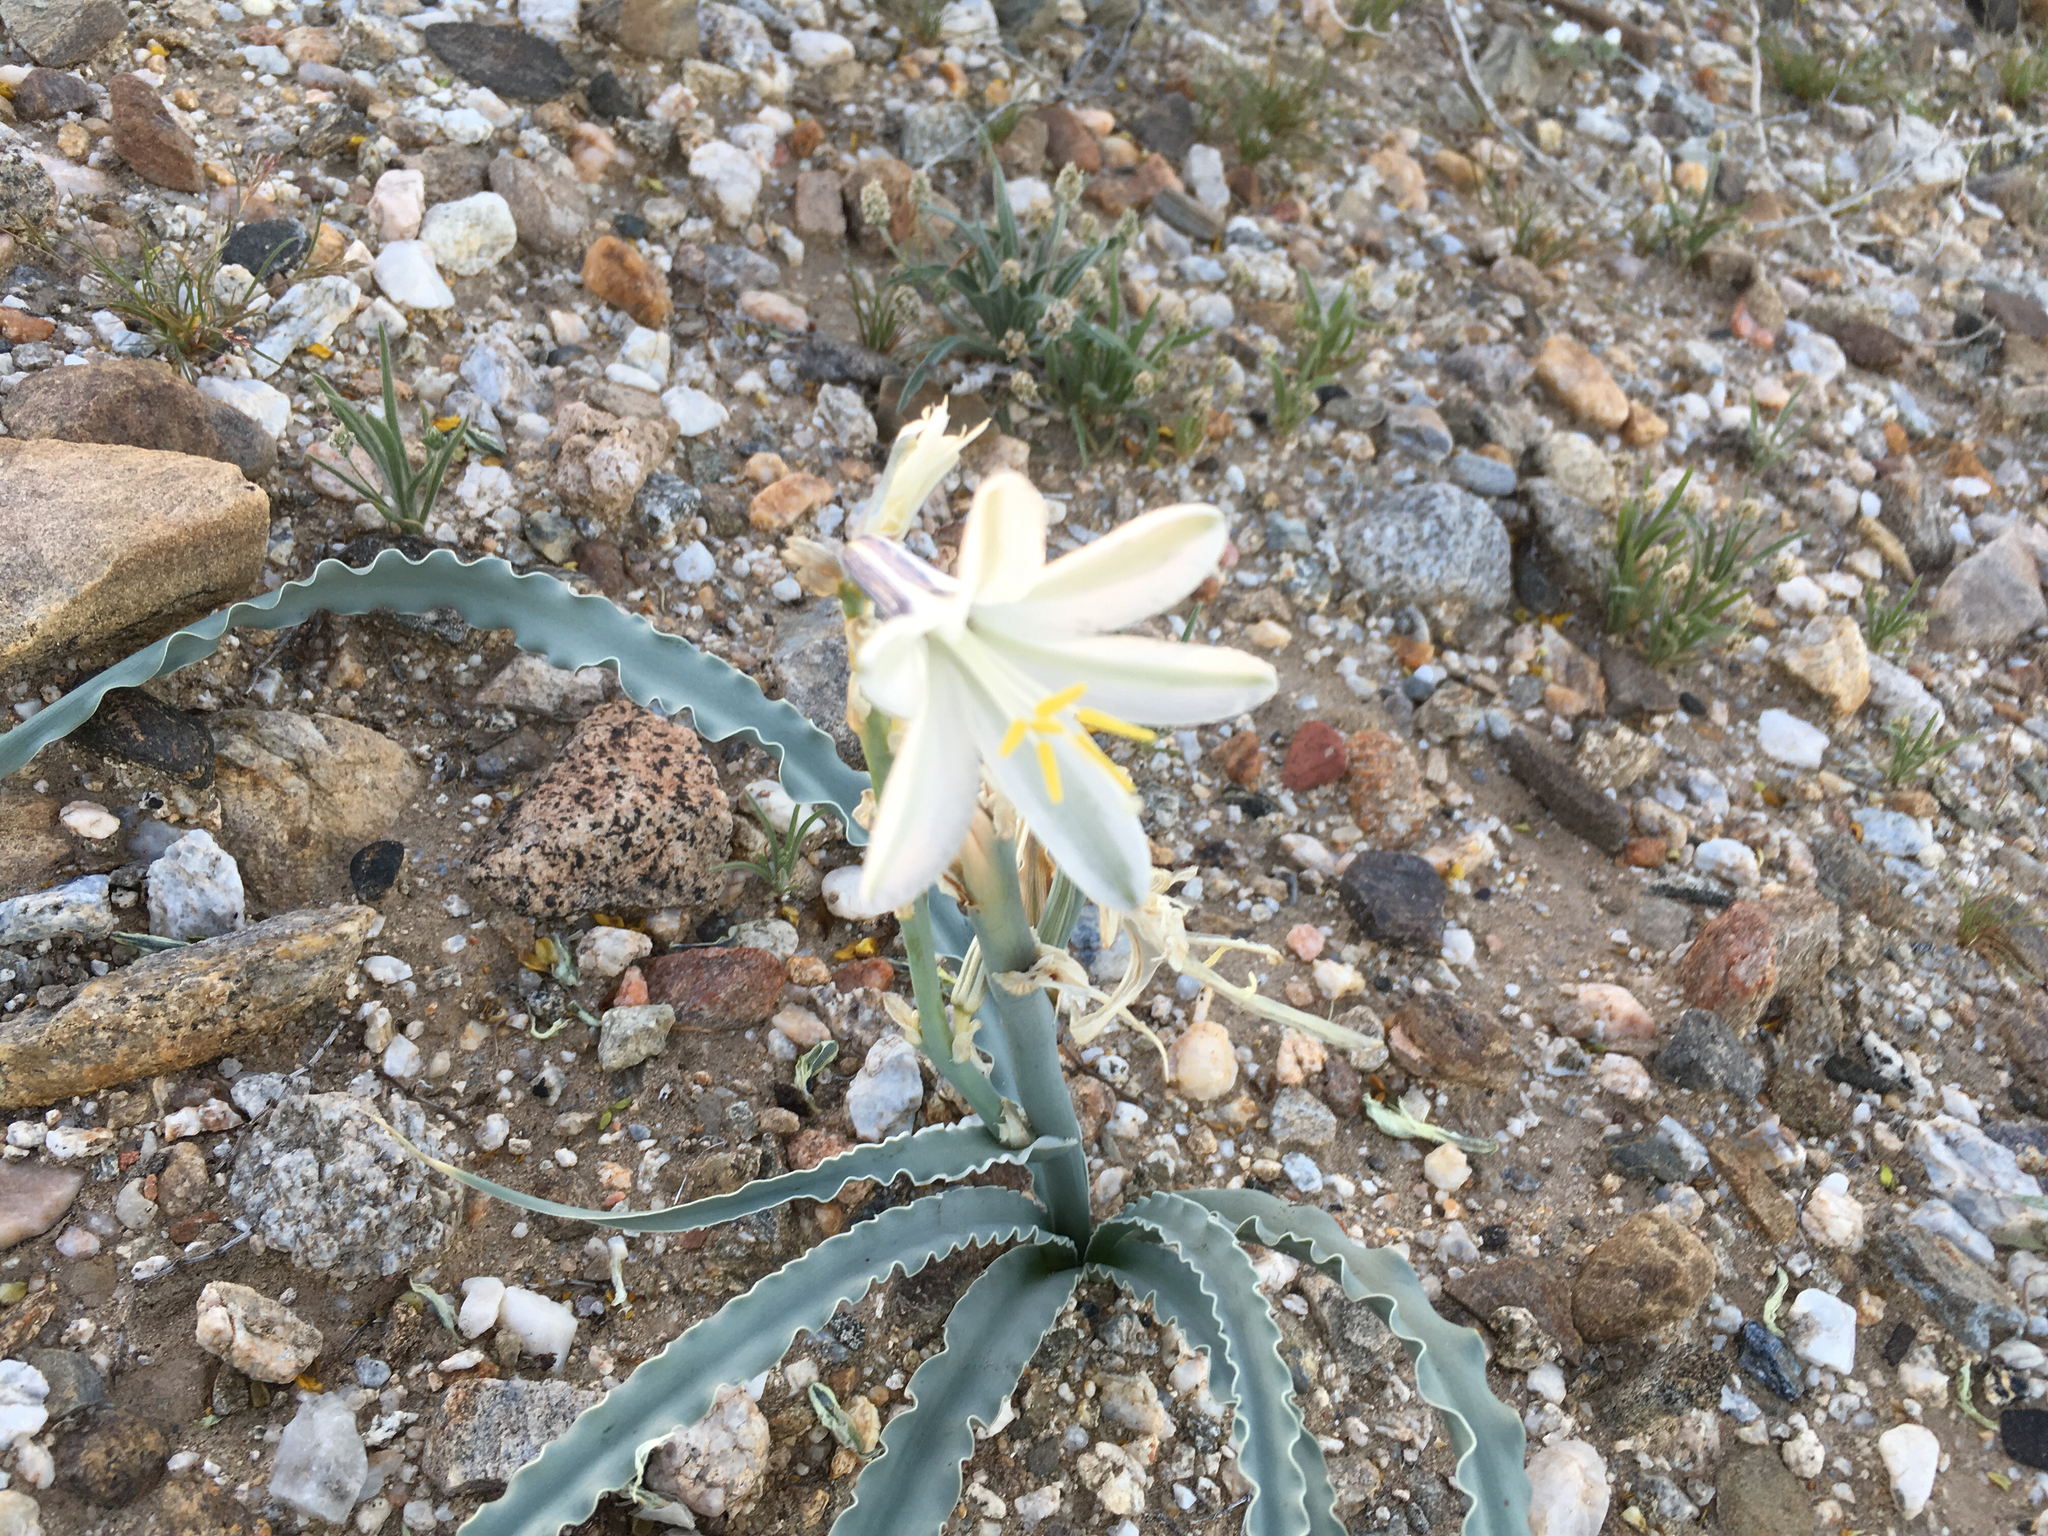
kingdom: Plantae
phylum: Tracheophyta
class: Liliopsida
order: Asparagales
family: Asparagaceae
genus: Hesperocallis
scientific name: Hesperocallis undulata
